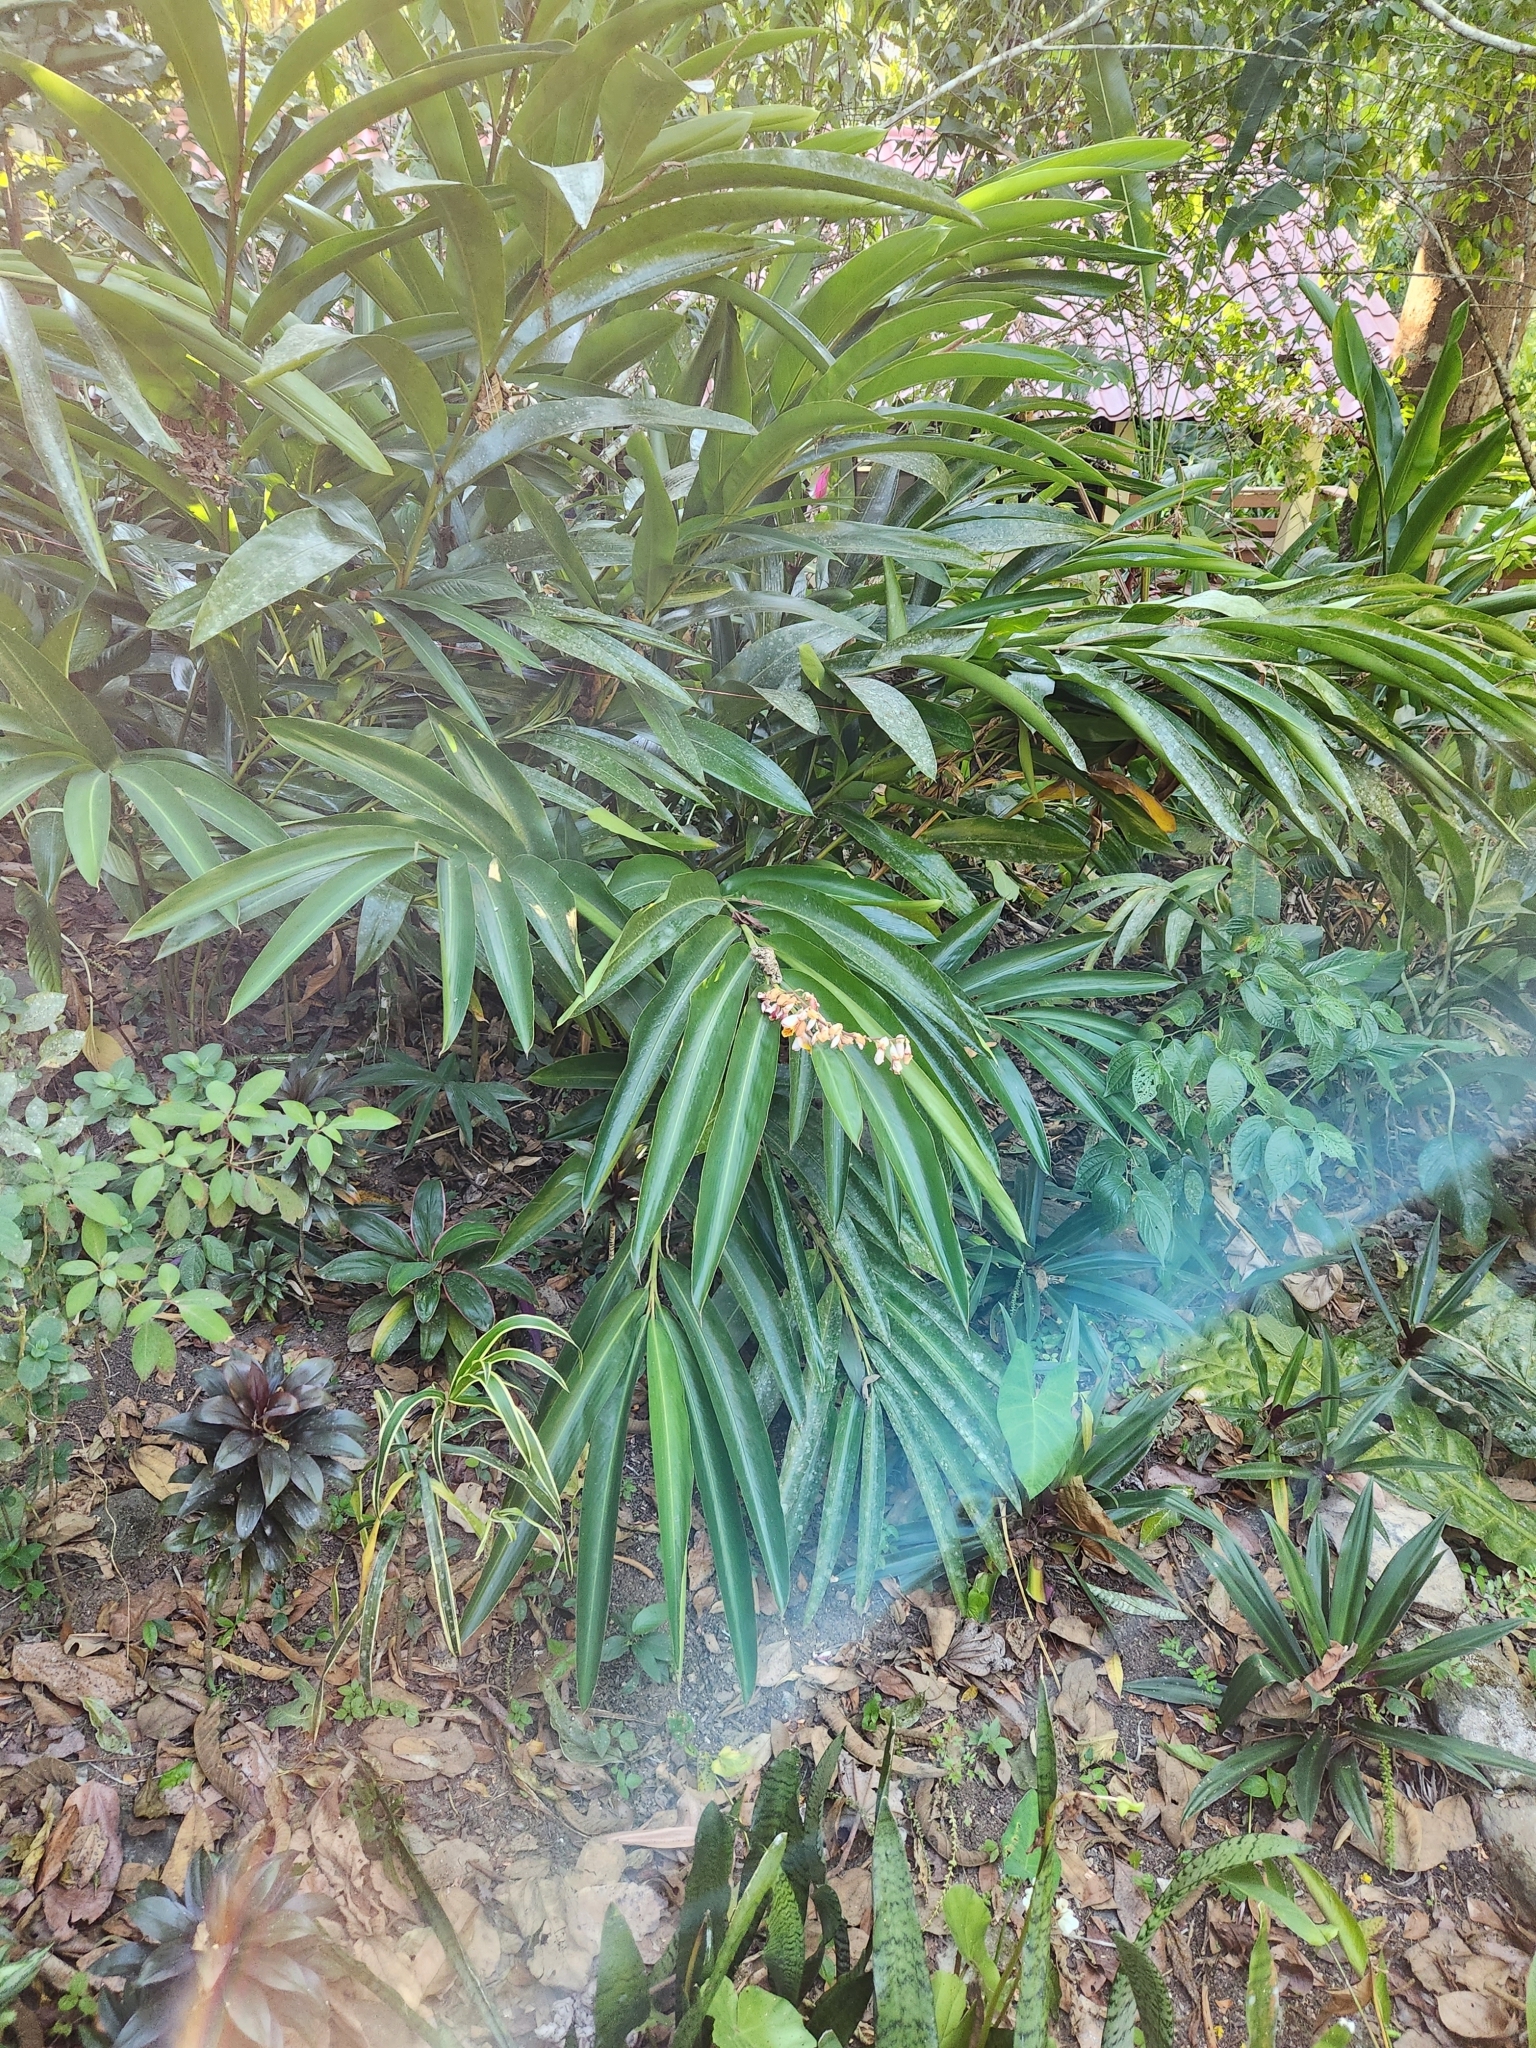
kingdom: Plantae
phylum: Tracheophyta
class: Liliopsida
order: Zingiberales
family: Zingiberaceae
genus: Alpinia
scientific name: Alpinia zerumbet
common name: Shellplant
